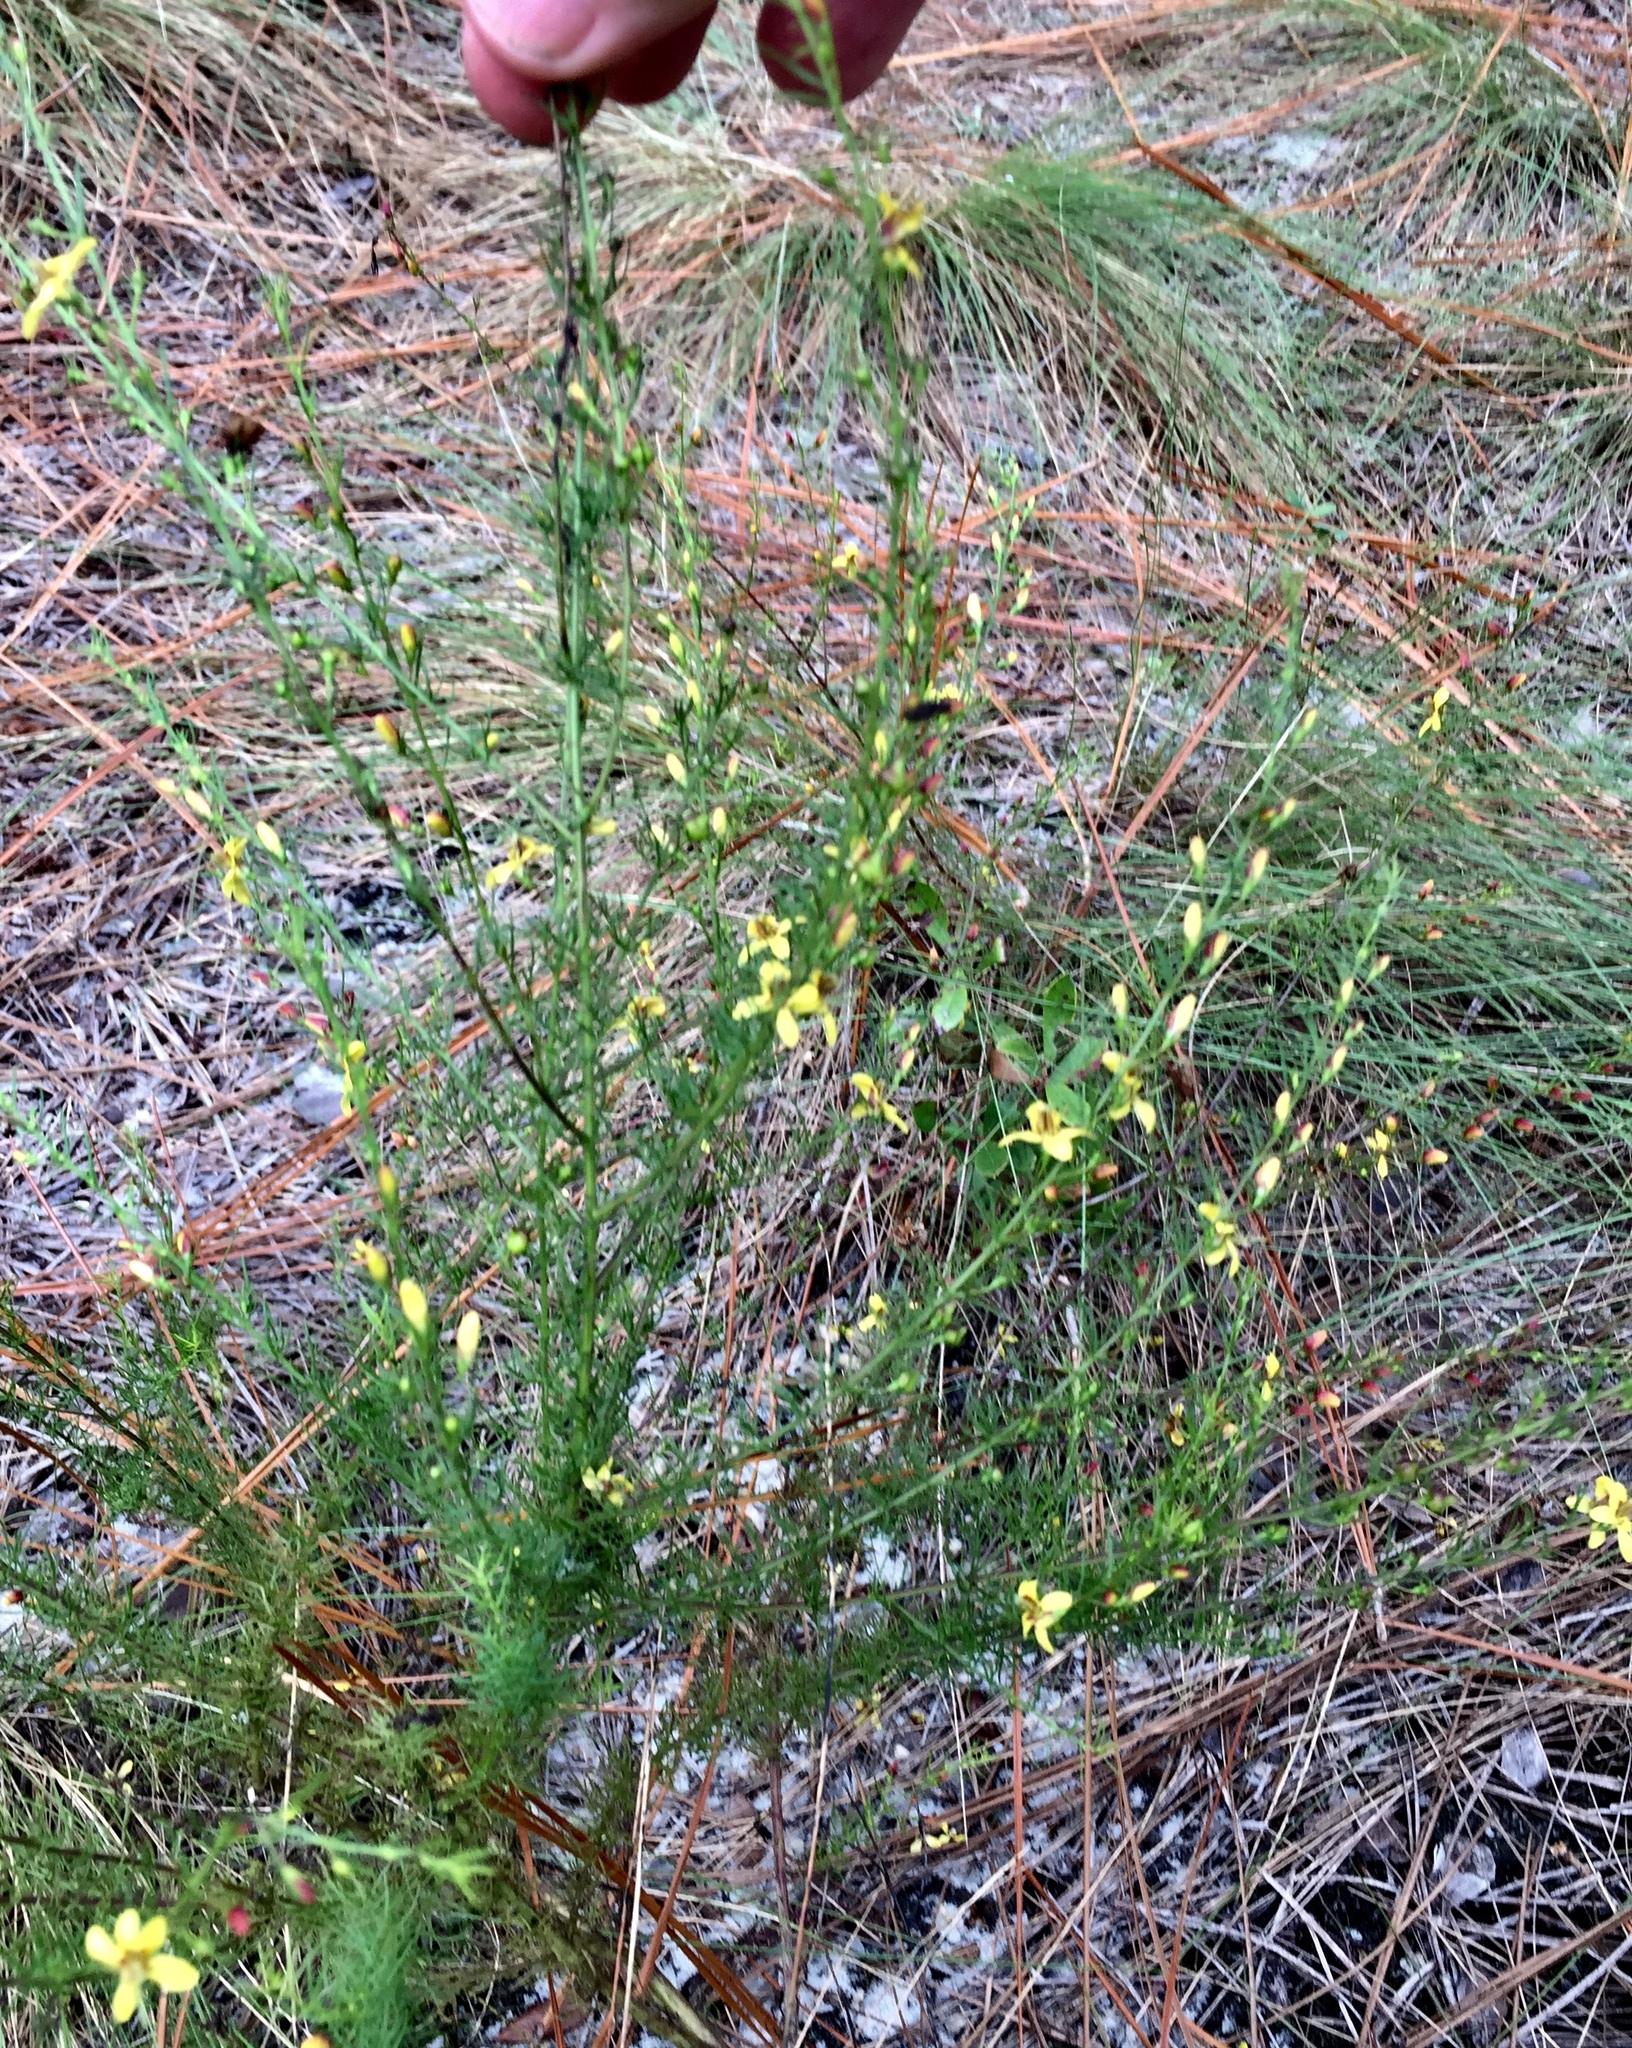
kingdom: Plantae
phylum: Tracheophyta
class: Magnoliopsida
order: Lamiales
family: Orobanchaceae
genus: Seymeria
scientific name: Seymeria cassioides
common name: Yaupon black-senna
